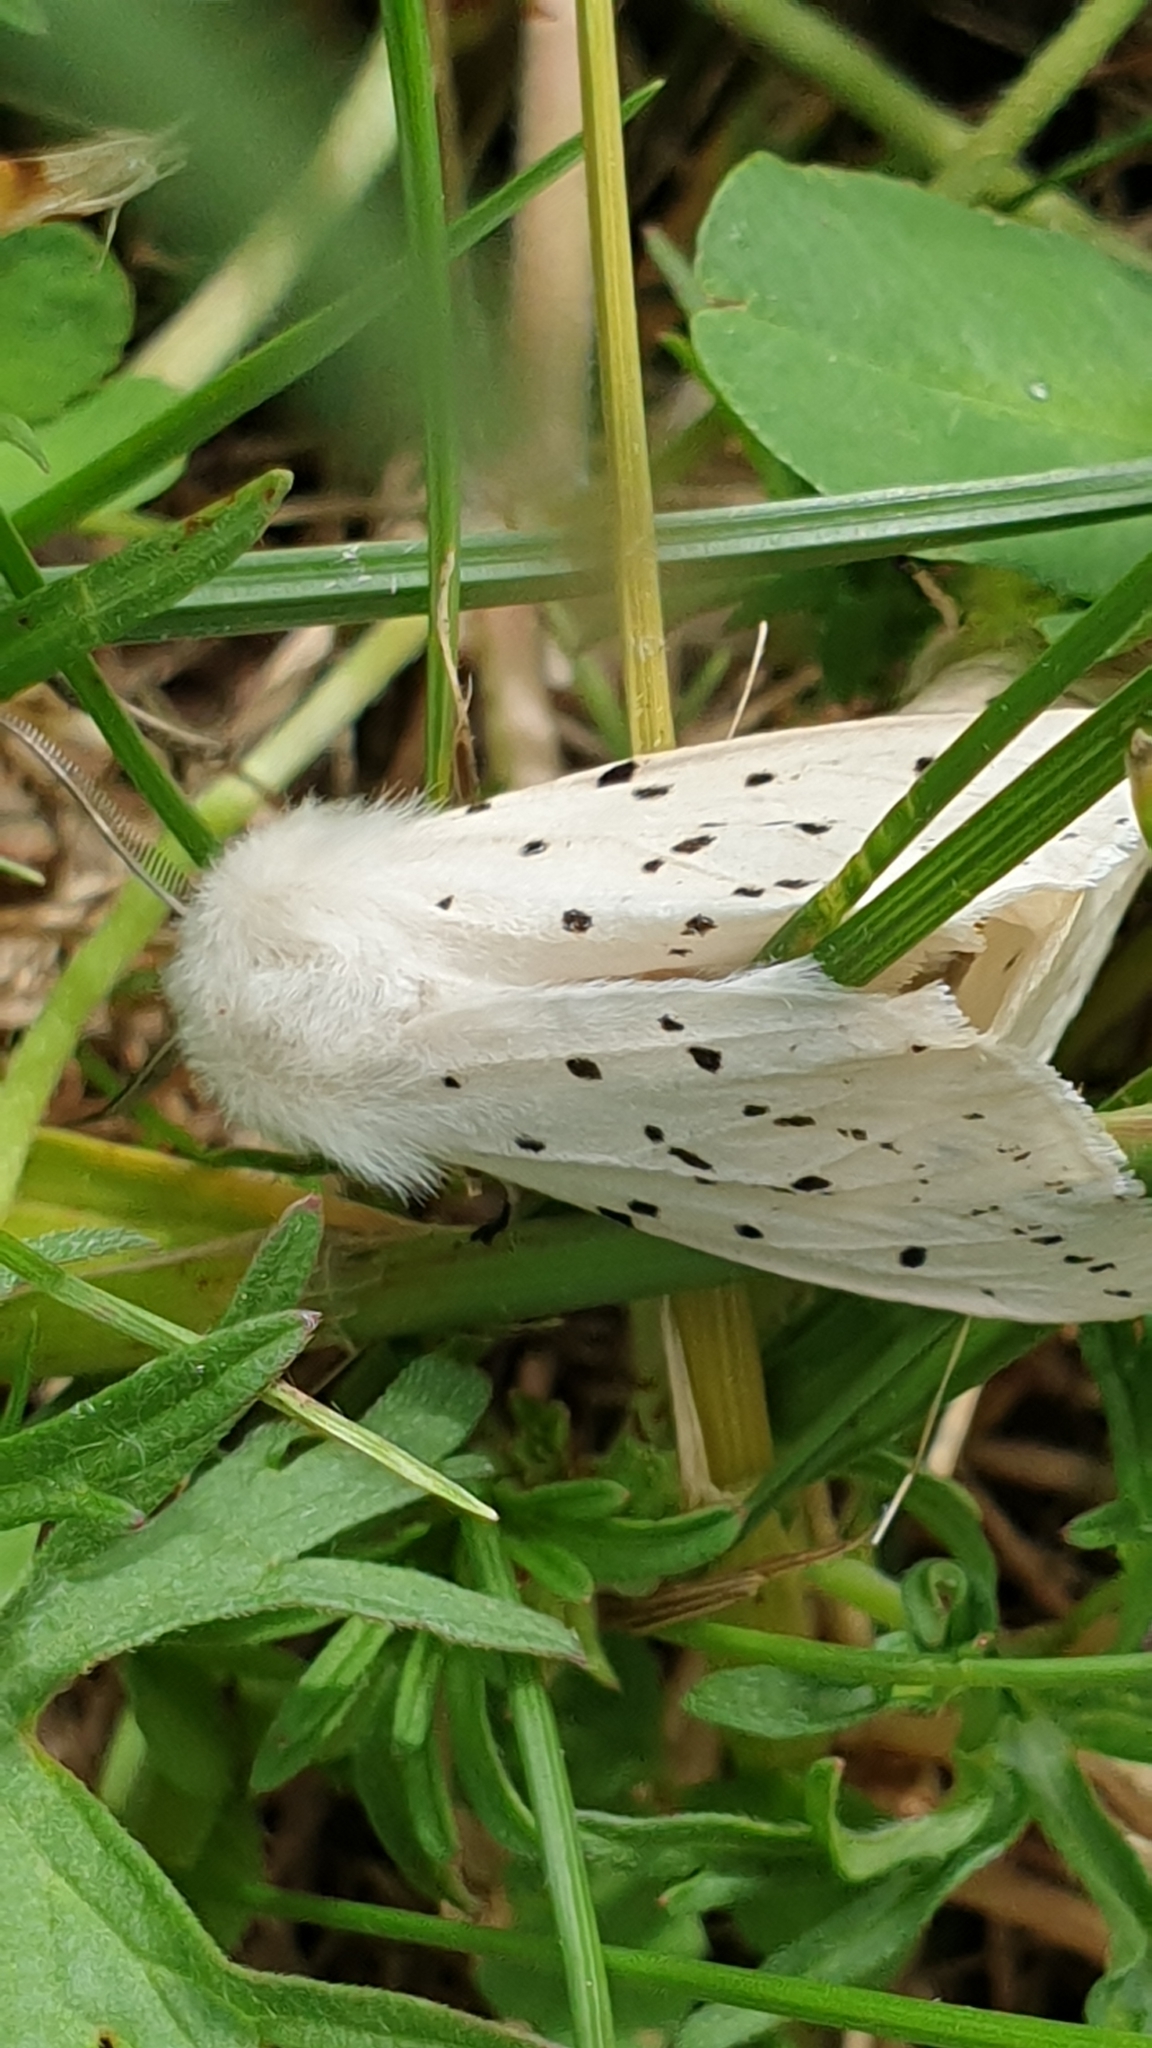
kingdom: Animalia
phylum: Arthropoda
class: Insecta
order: Lepidoptera
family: Erebidae
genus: Spilosoma
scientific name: Spilosoma lubricipeda
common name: White ermine
